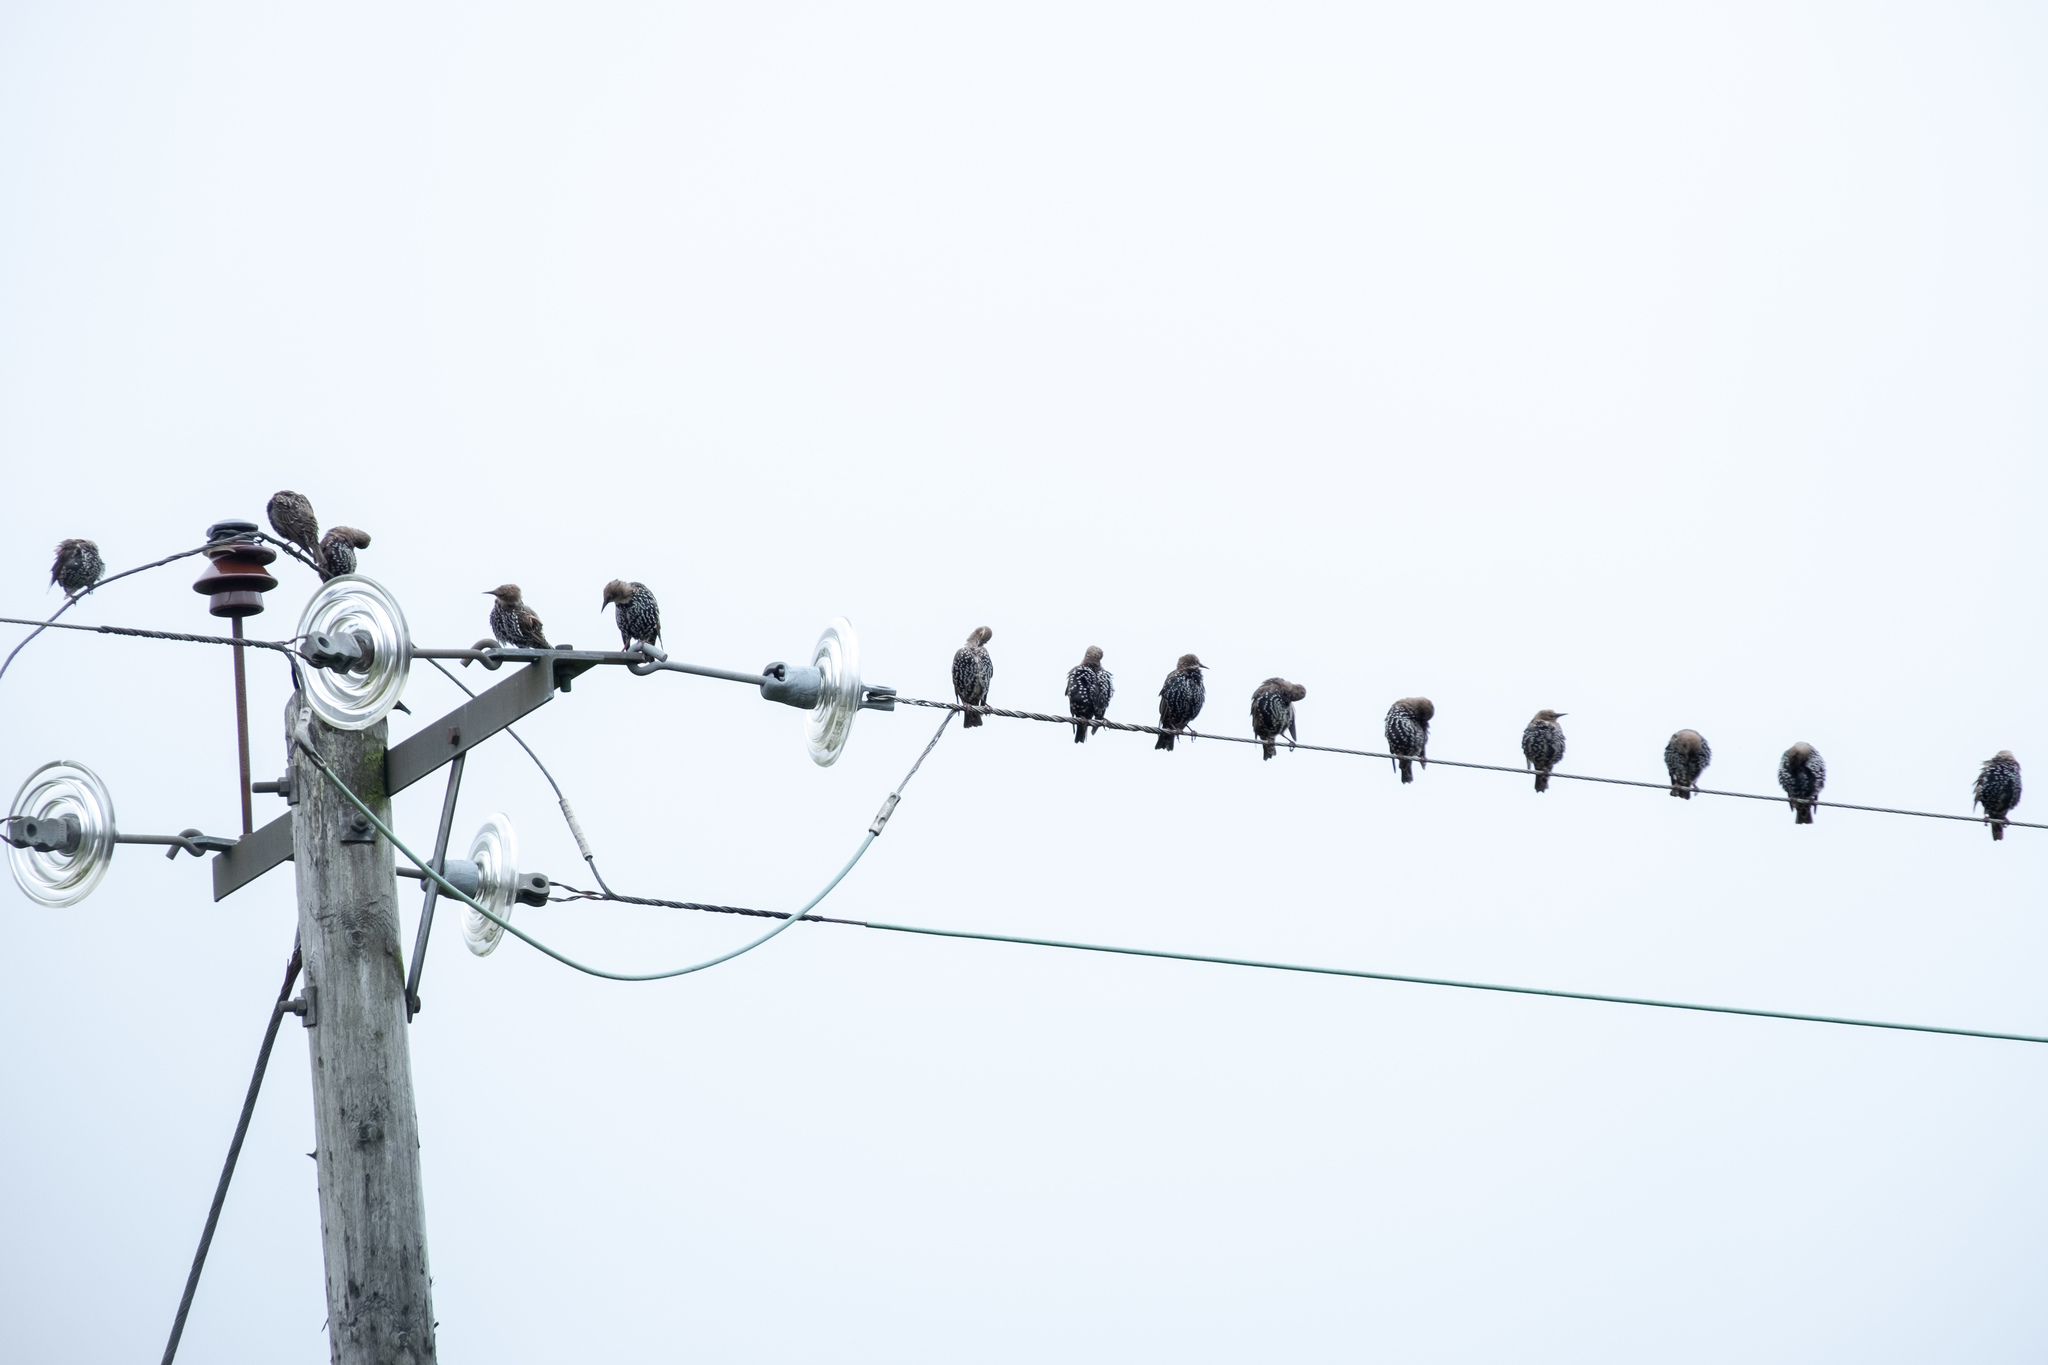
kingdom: Animalia
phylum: Chordata
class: Aves
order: Passeriformes
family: Sturnidae
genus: Sturnus
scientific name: Sturnus vulgaris
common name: Common starling
